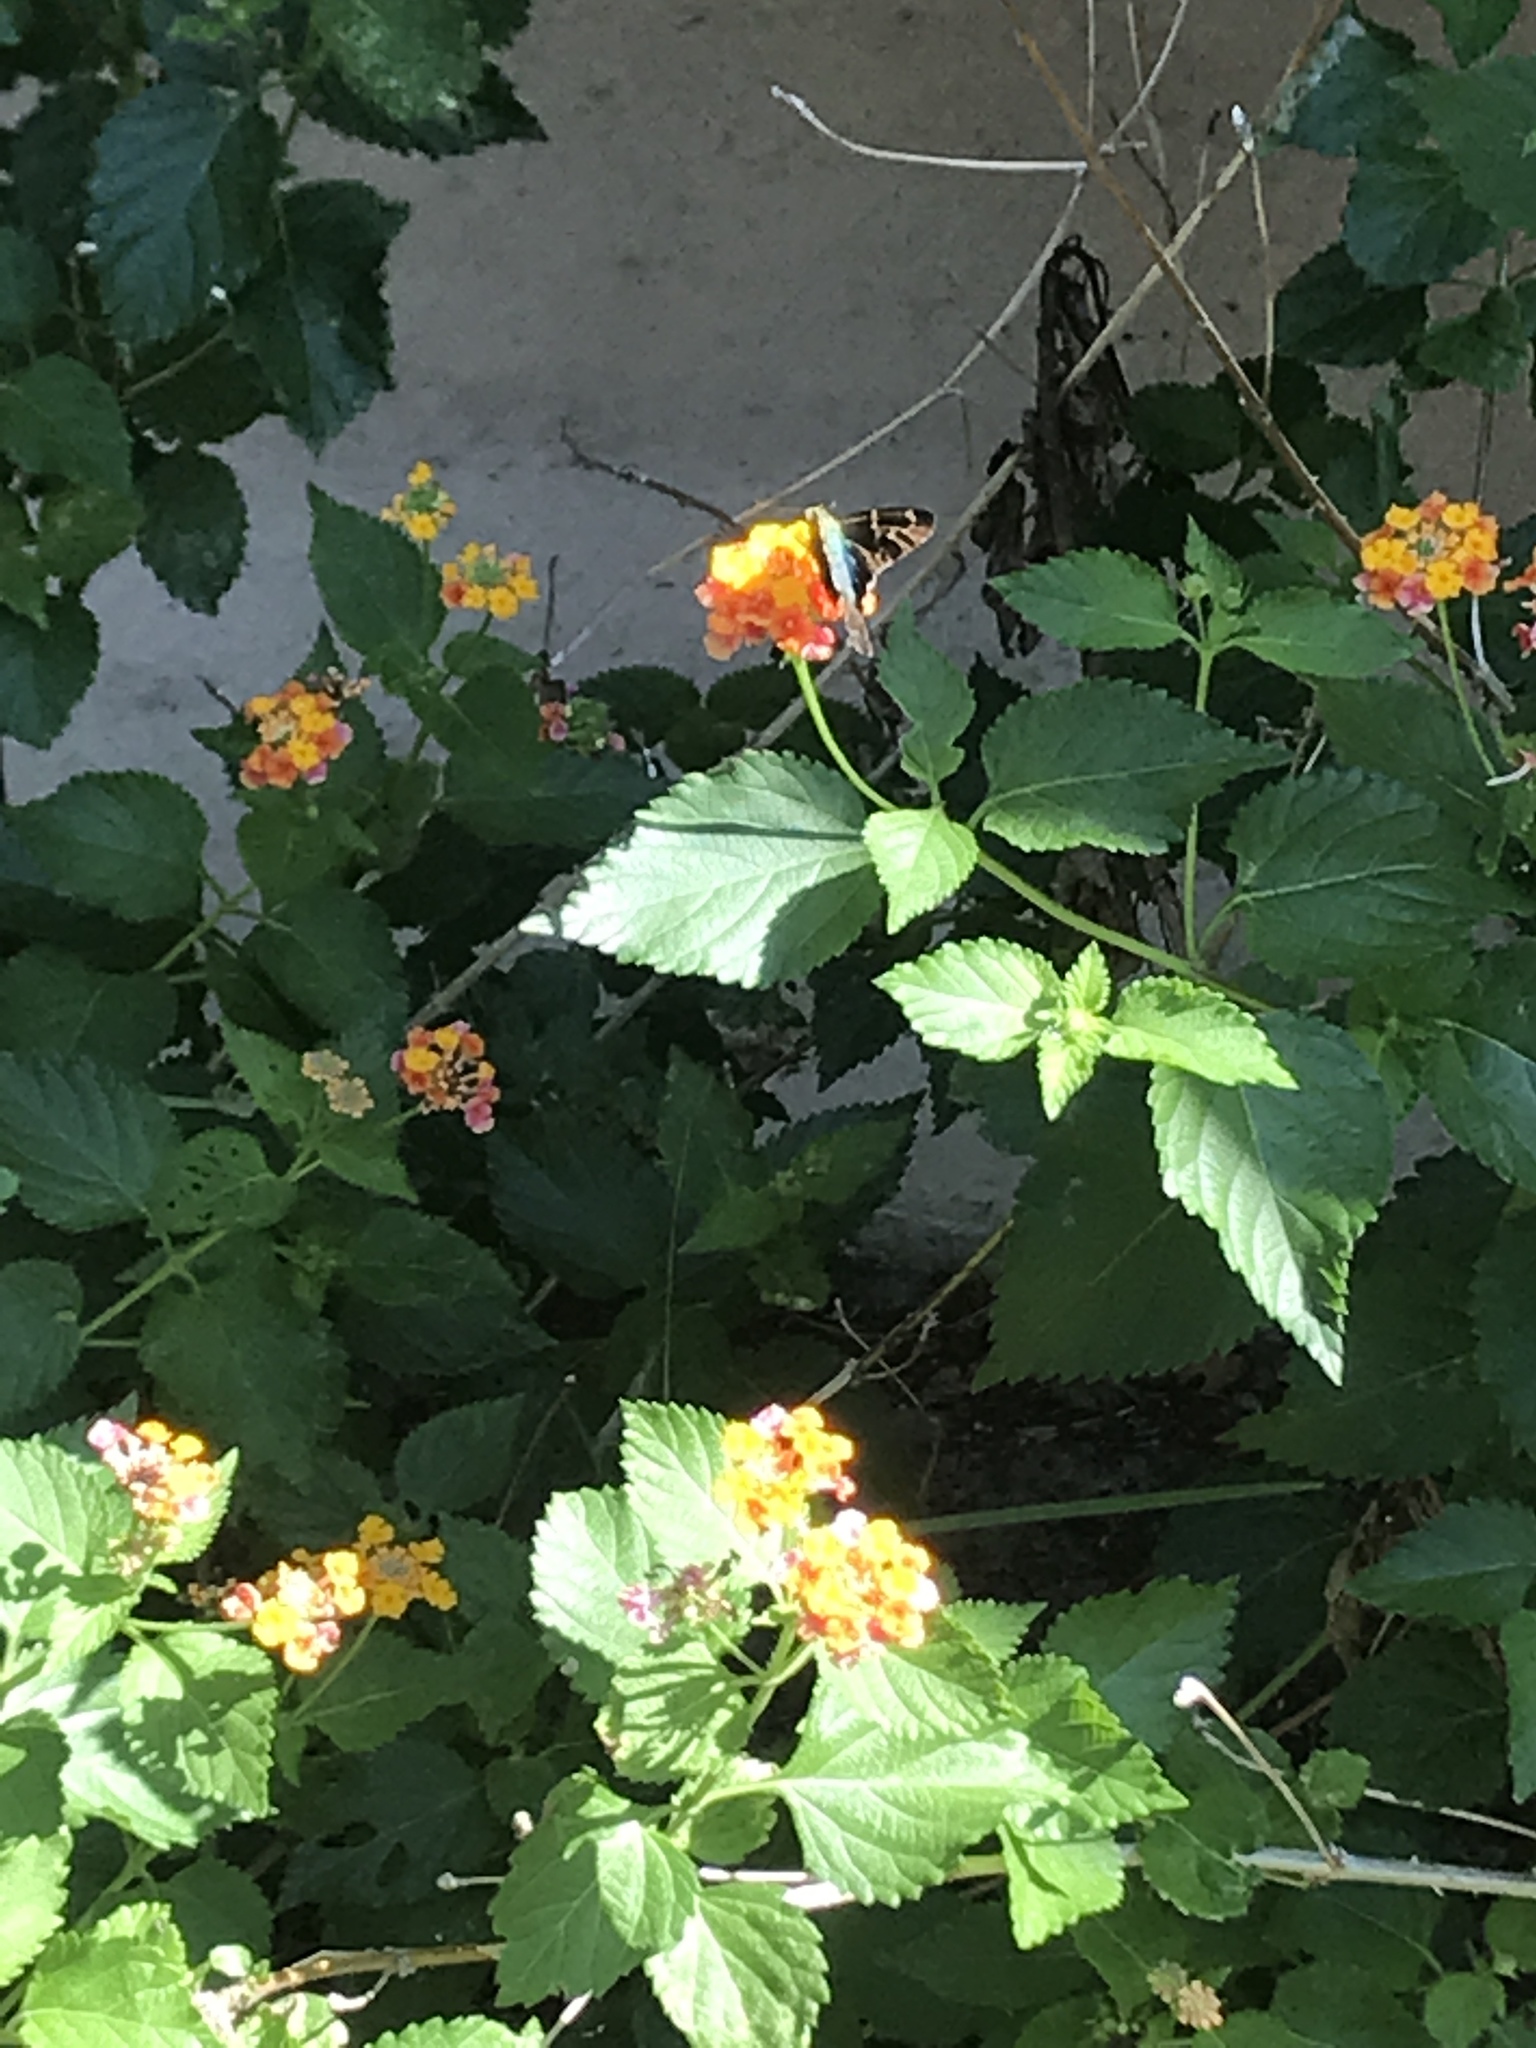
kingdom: Animalia
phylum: Arthropoda
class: Insecta
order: Lepidoptera
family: Hesperiidae
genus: Urbanus
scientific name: Urbanus proteus
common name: Long-tailed skipper
